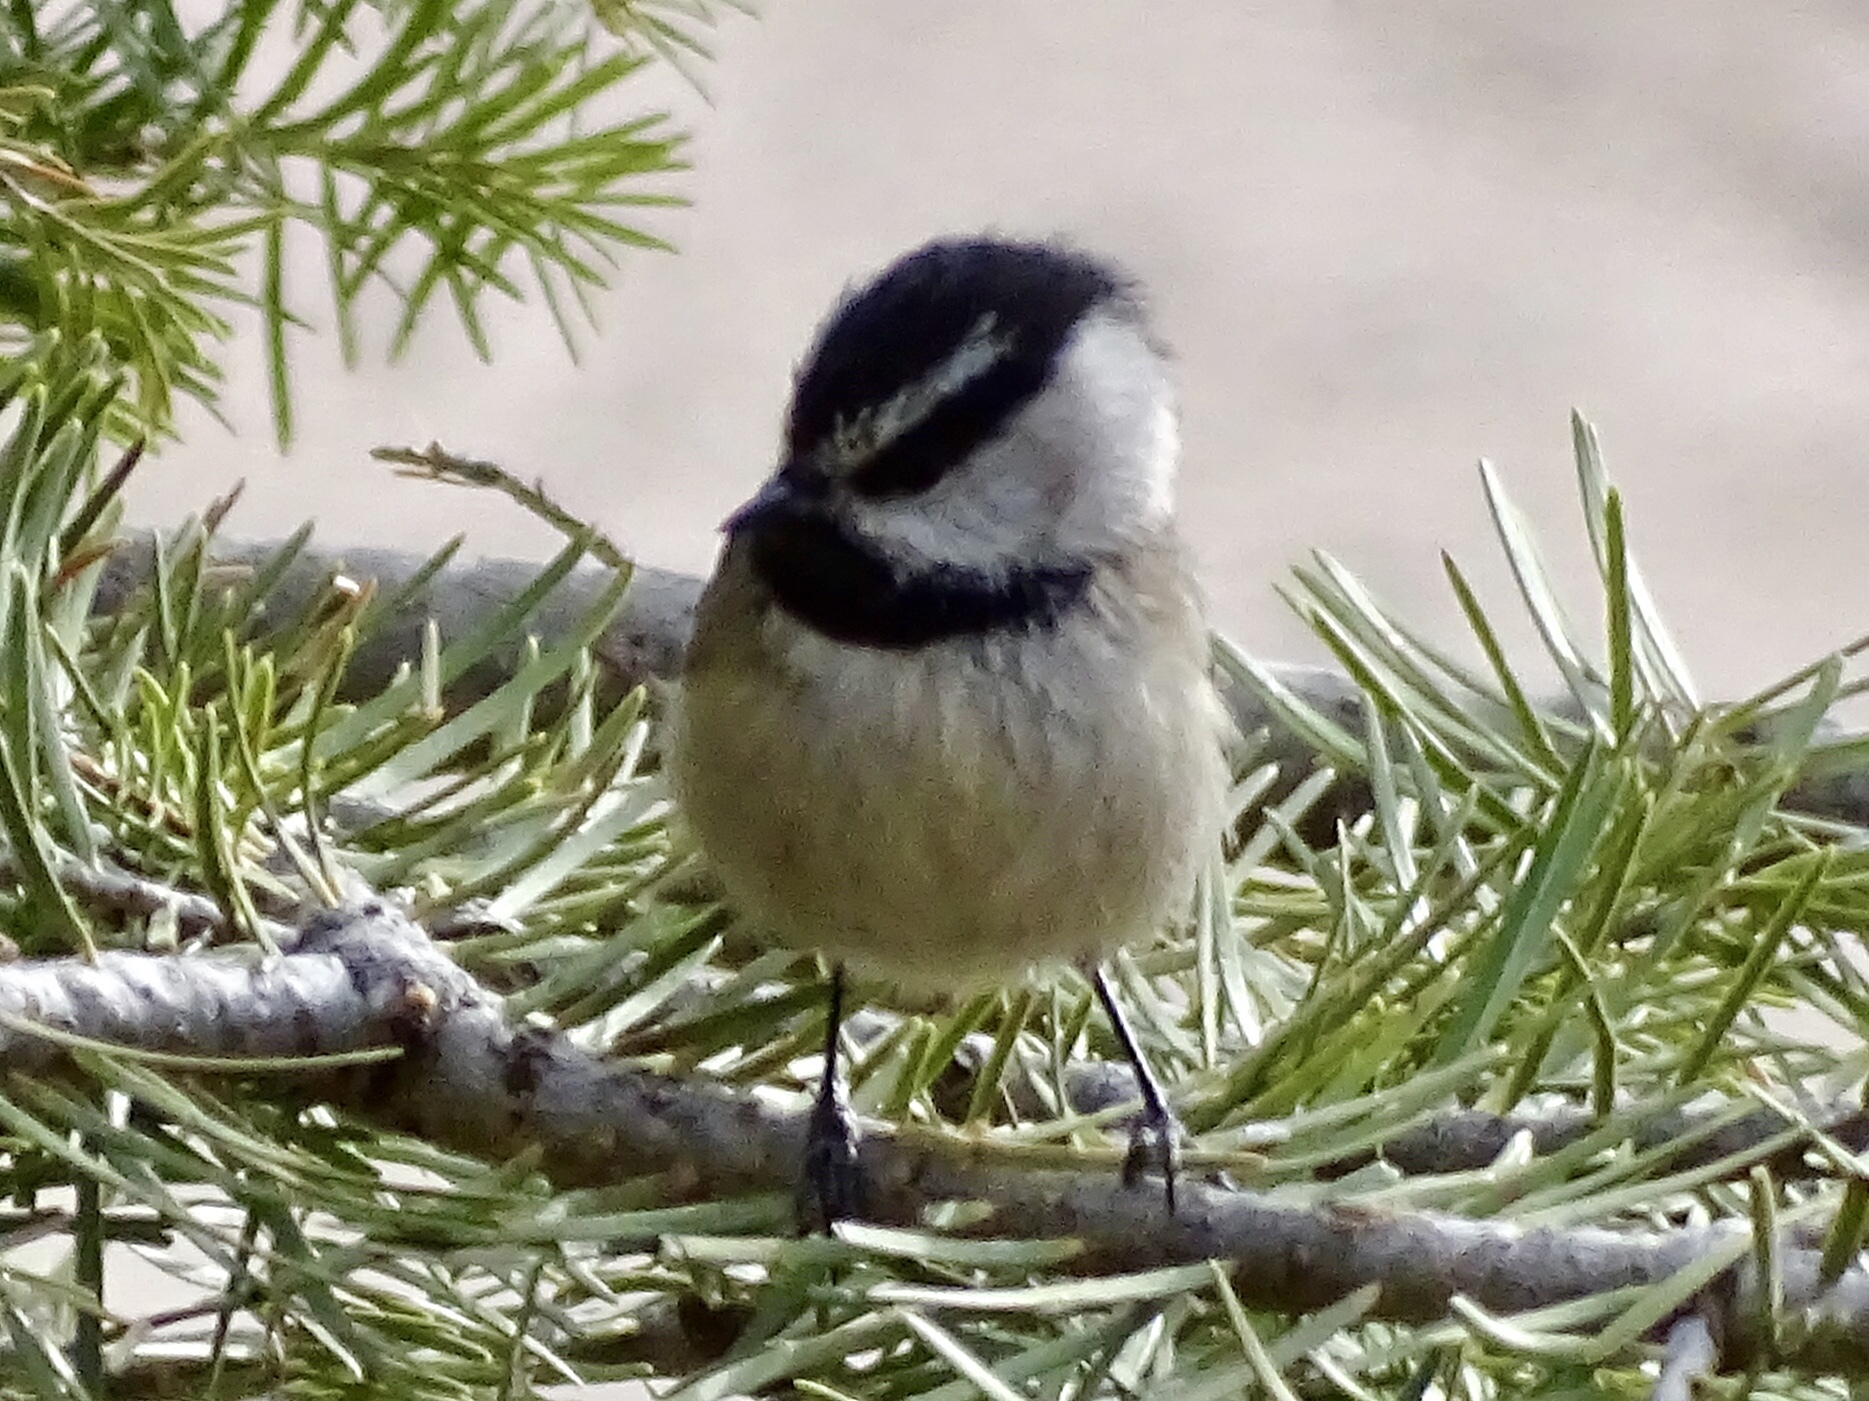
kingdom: Animalia
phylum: Chordata
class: Aves
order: Passeriformes
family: Paridae
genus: Poecile
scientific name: Poecile gambeli
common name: Mountain chickadee
